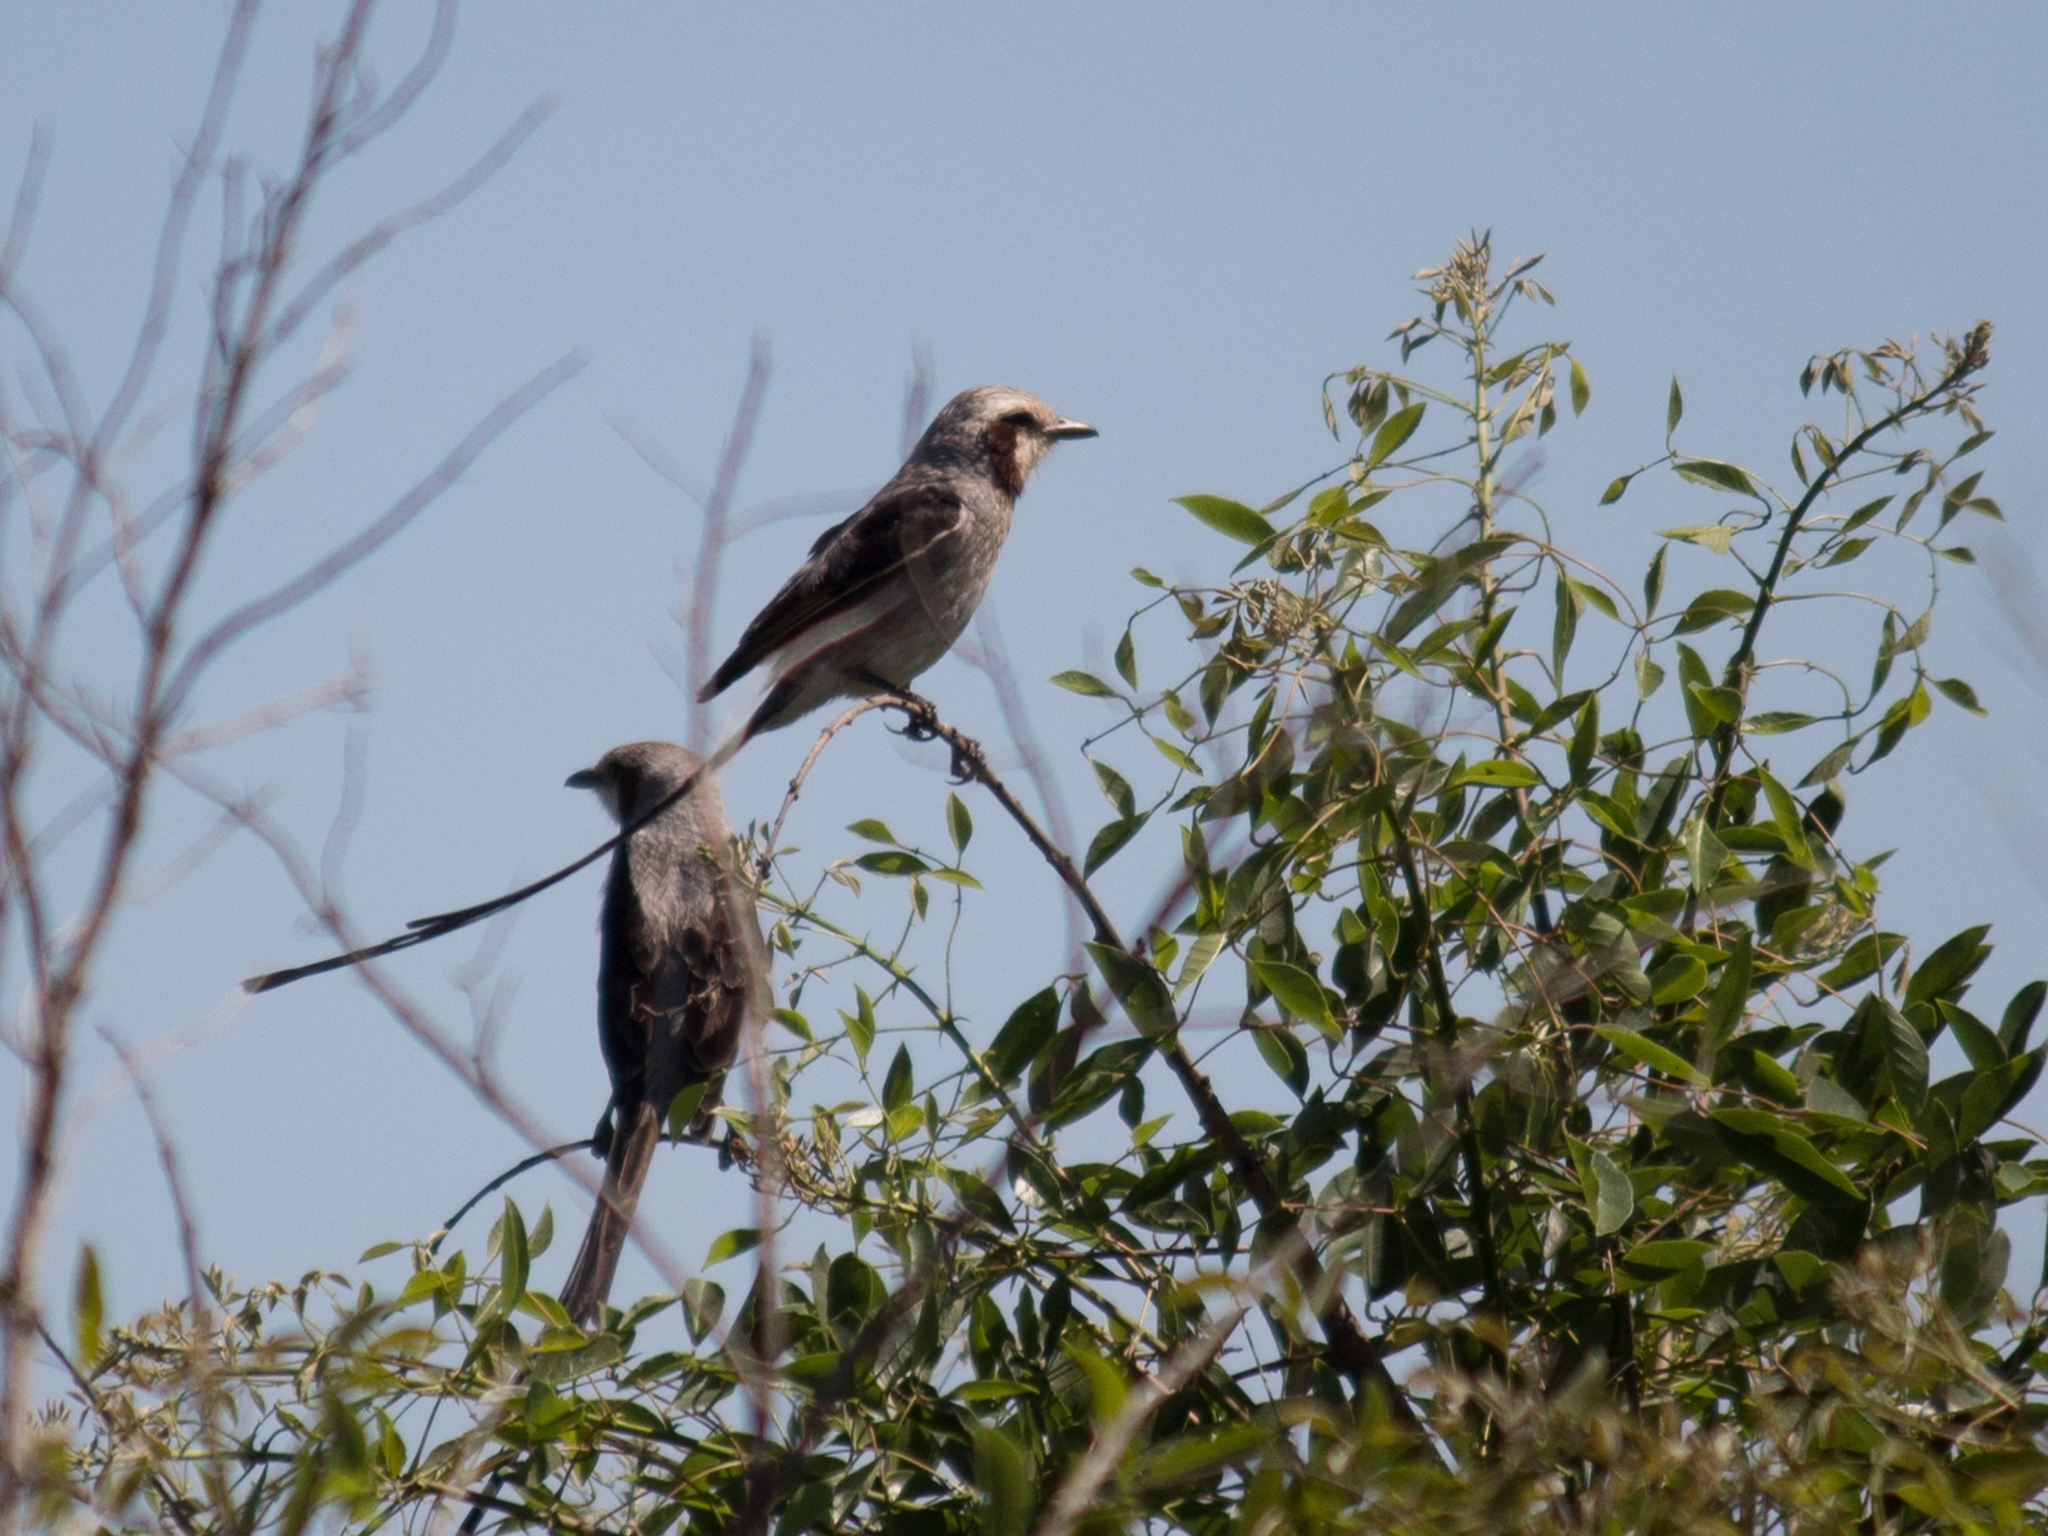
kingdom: Animalia
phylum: Chordata
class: Aves
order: Passeriformes
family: Tyrannidae
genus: Gubernetes
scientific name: Gubernetes yetapa
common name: Streamer-tailed tyrant
